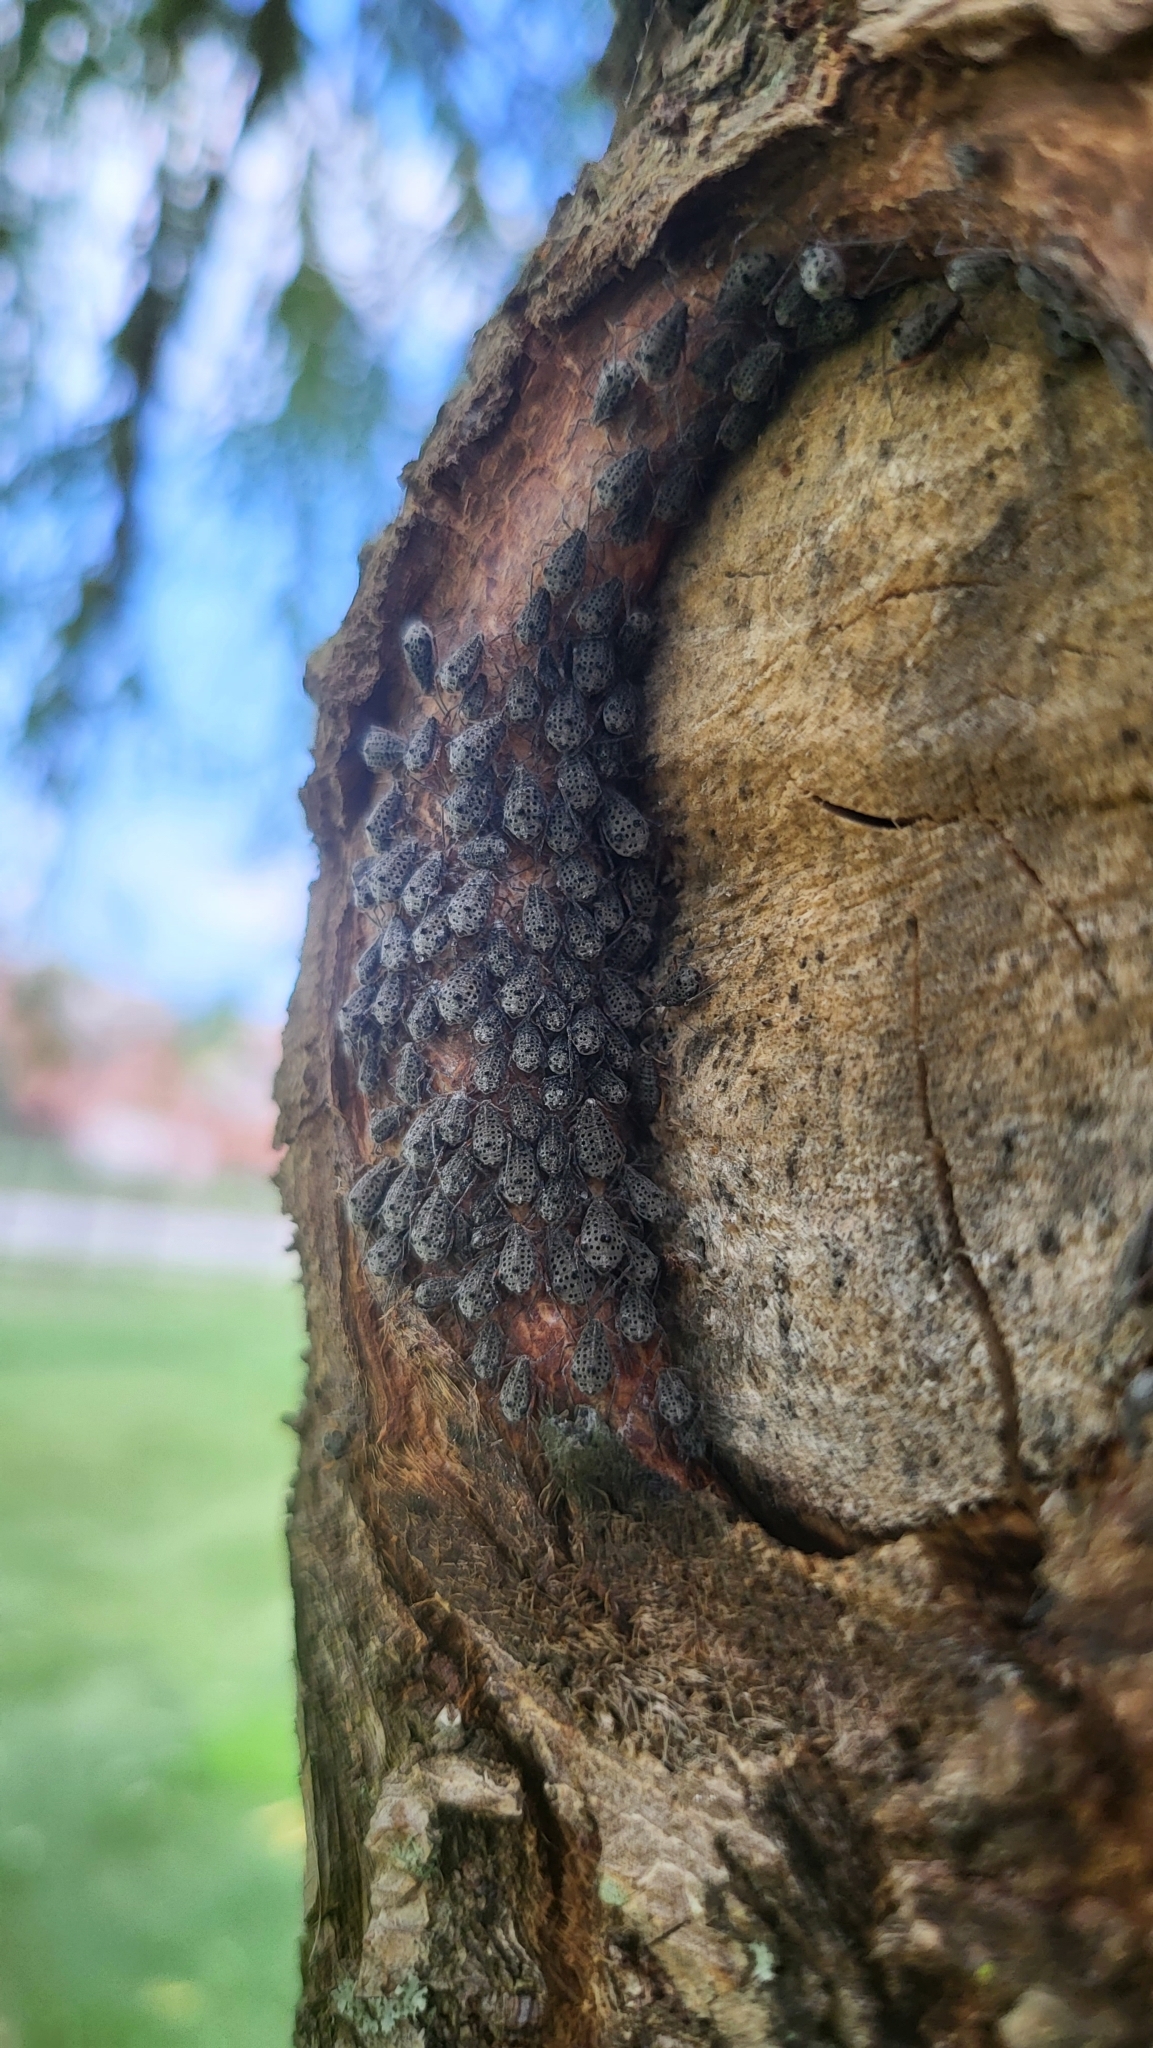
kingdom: Animalia
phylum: Arthropoda
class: Insecta
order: Hemiptera
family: Aphididae
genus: Tuberolachnus
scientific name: Tuberolachnus salignus
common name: Giant willow aphid
